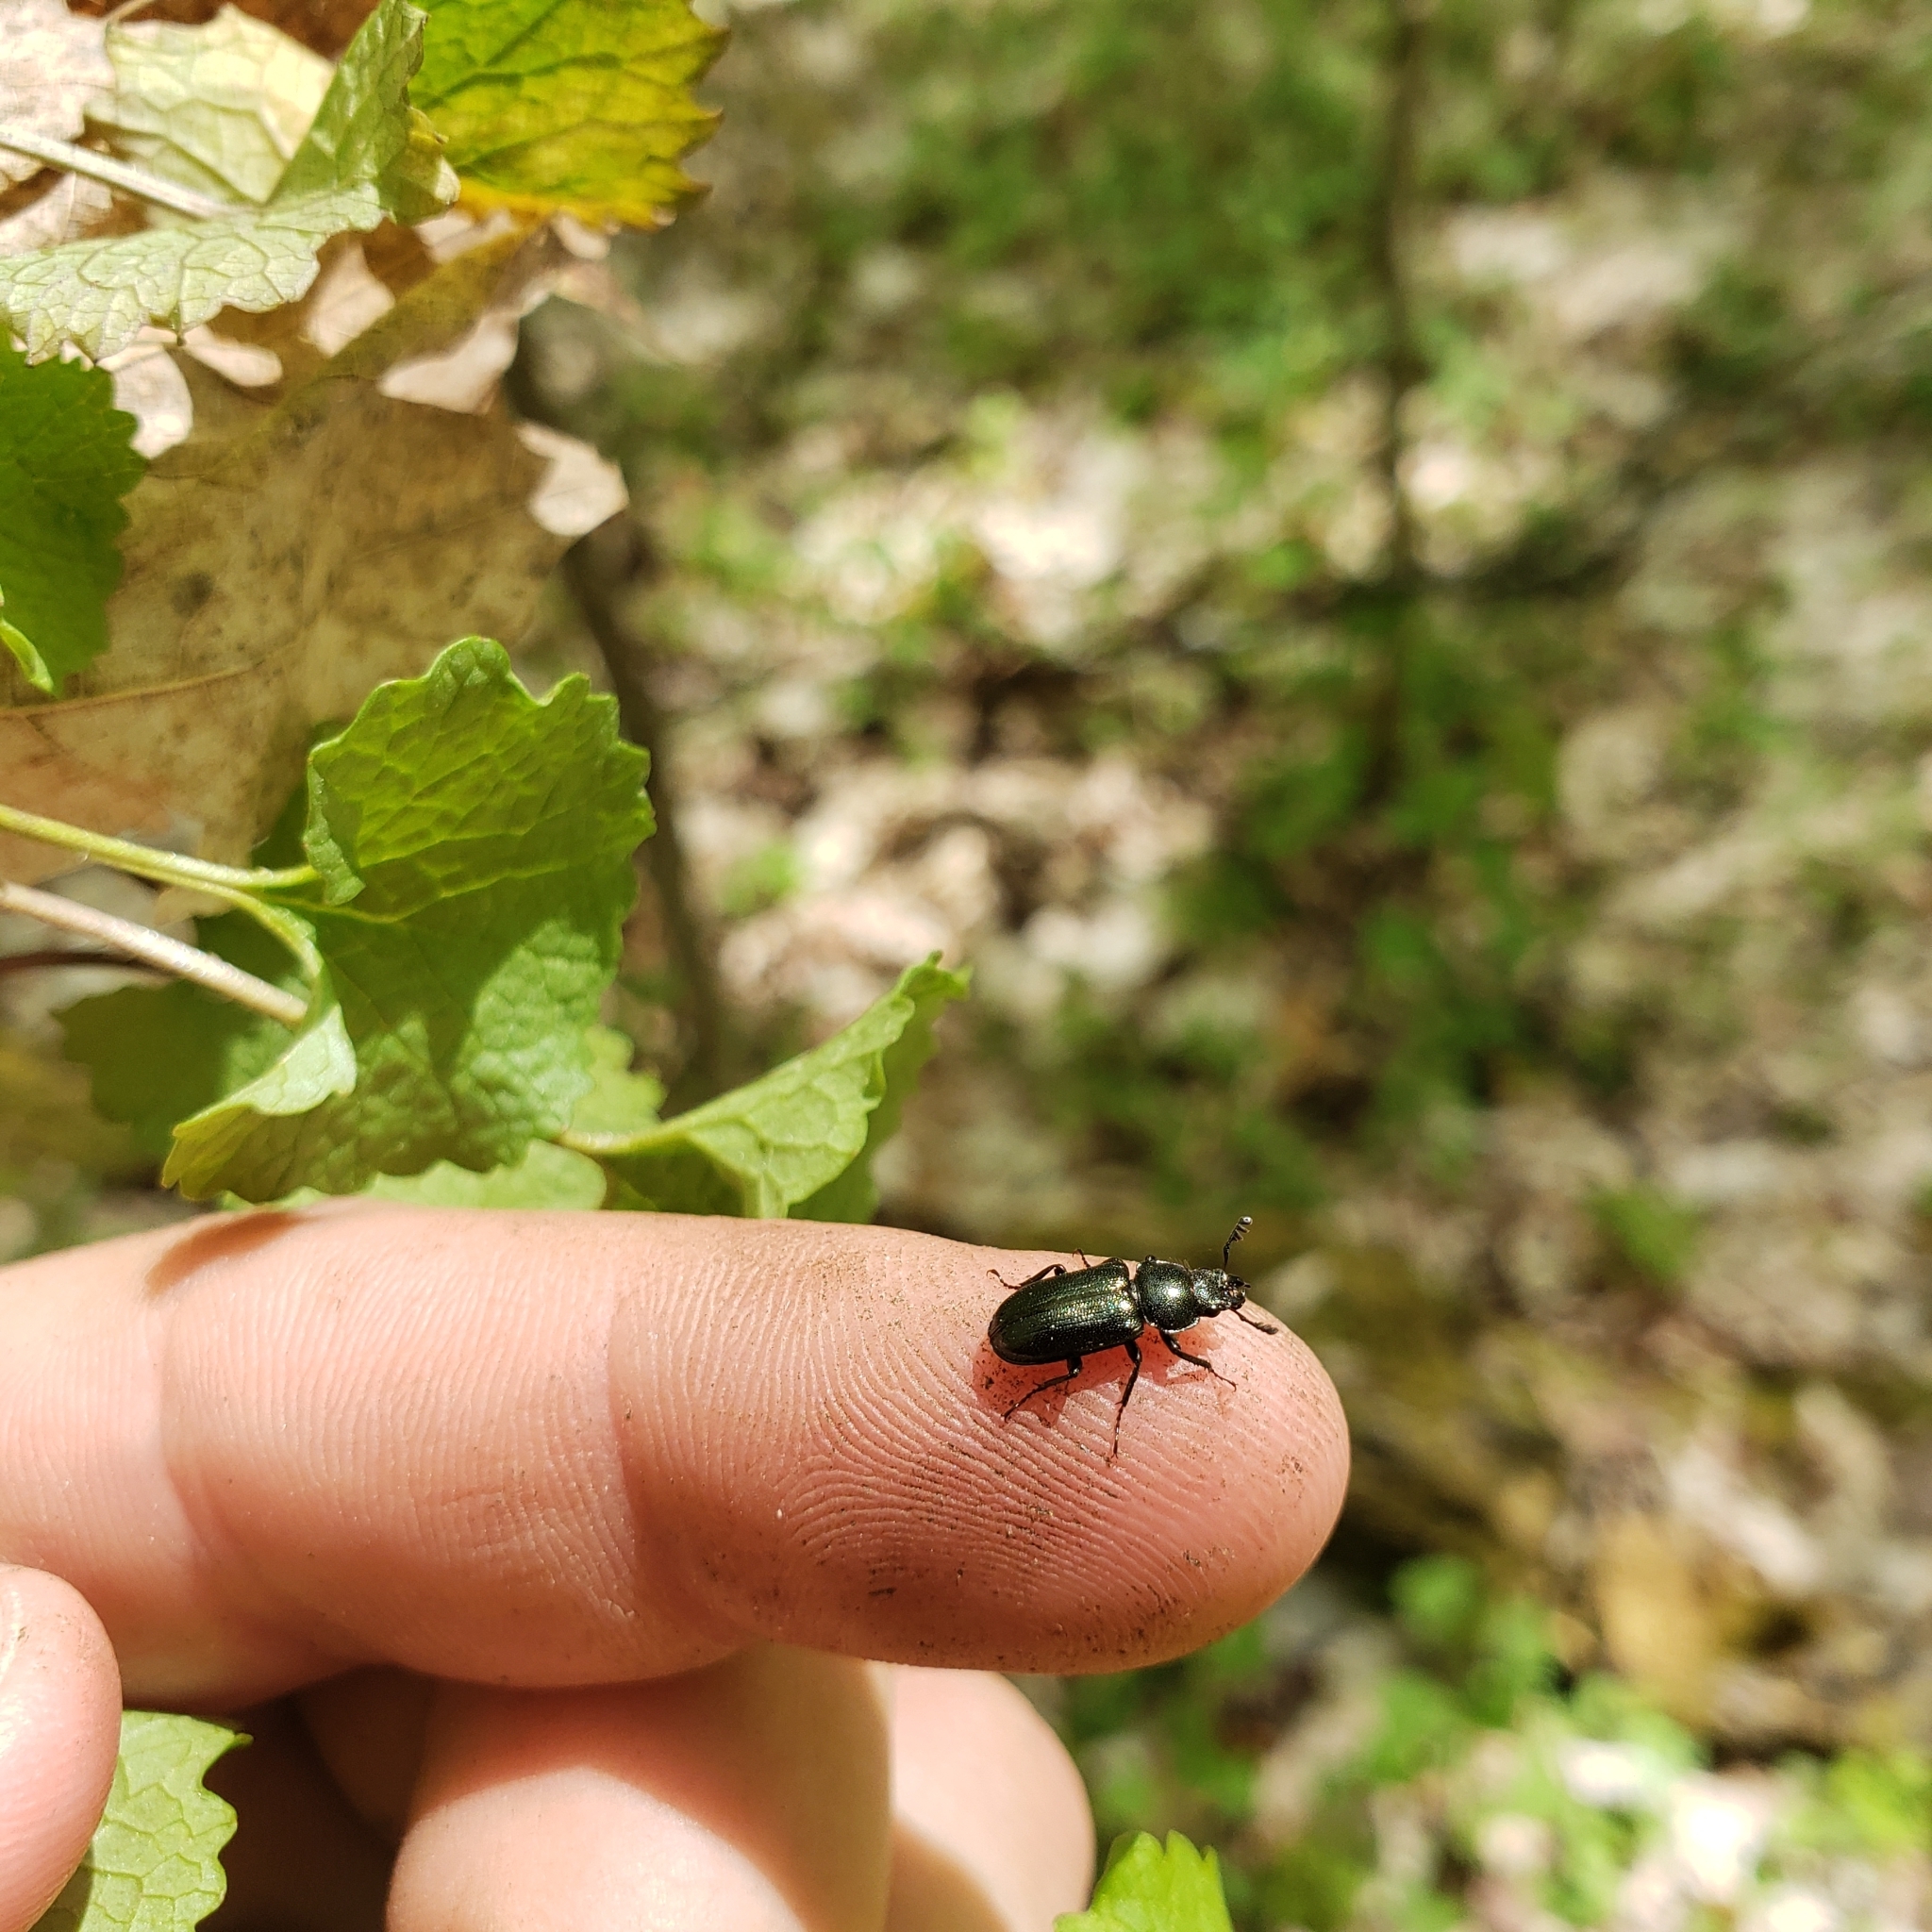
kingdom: Animalia
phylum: Arthropoda
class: Insecta
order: Coleoptera
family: Lucanidae
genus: Platycerus
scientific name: Platycerus quercus
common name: Oak stag beetle
